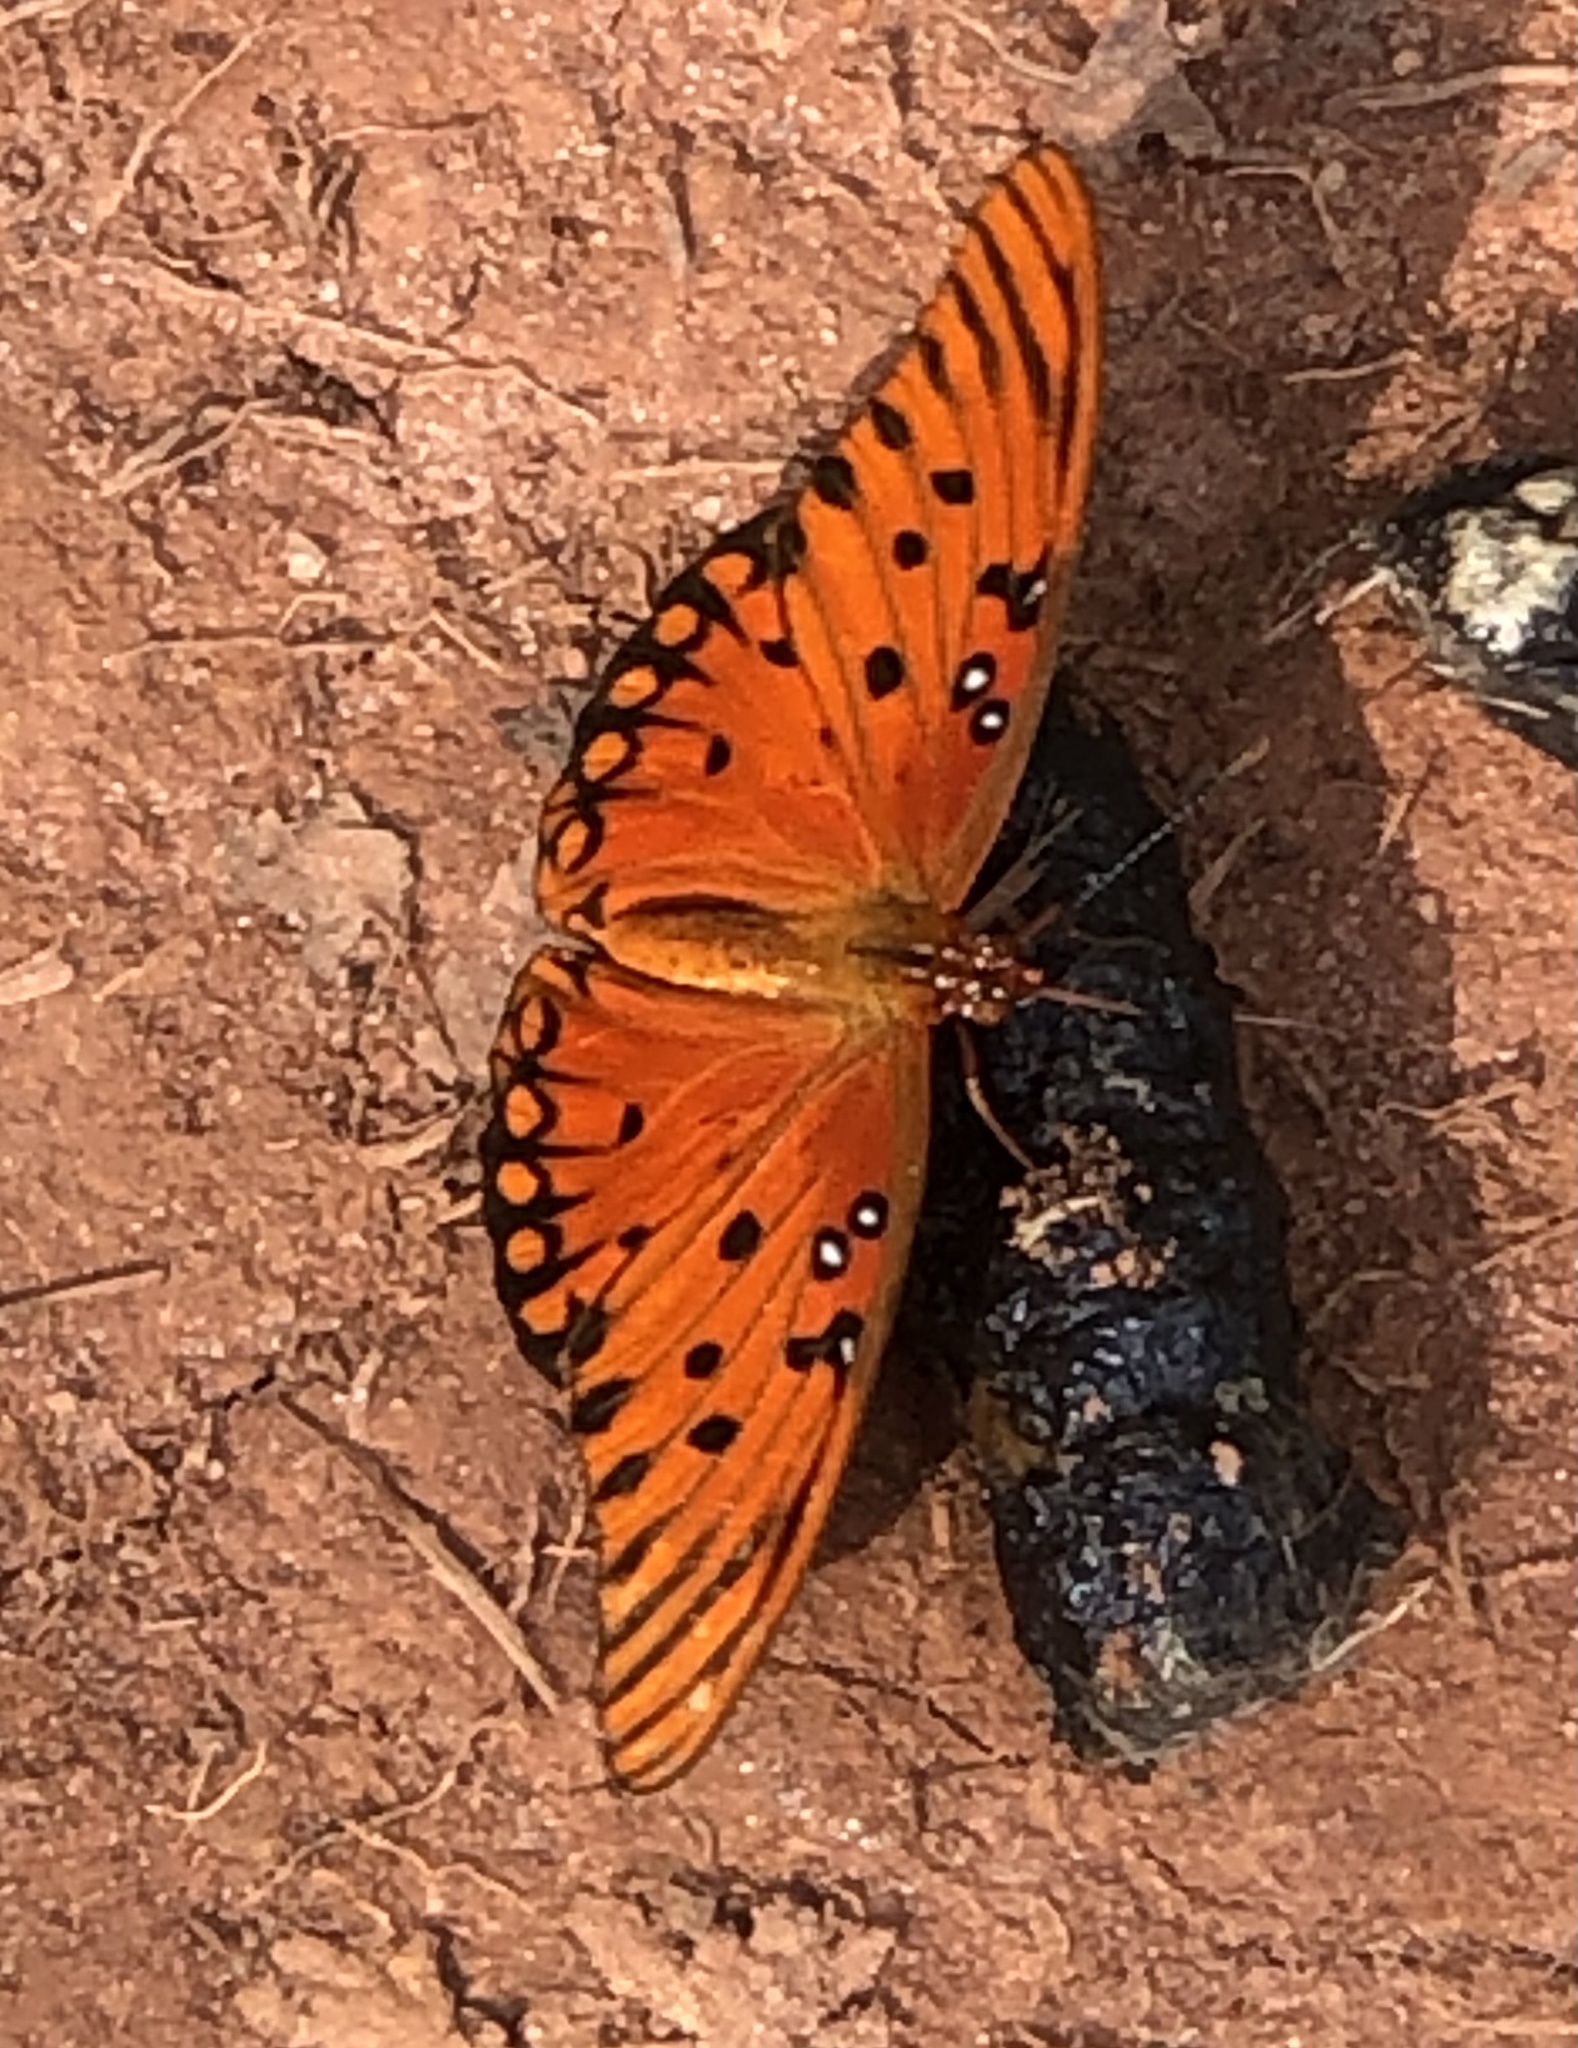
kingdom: Animalia
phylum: Arthropoda
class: Insecta
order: Lepidoptera
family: Nymphalidae
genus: Dione
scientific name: Dione vanillae
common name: Gulf fritillary
